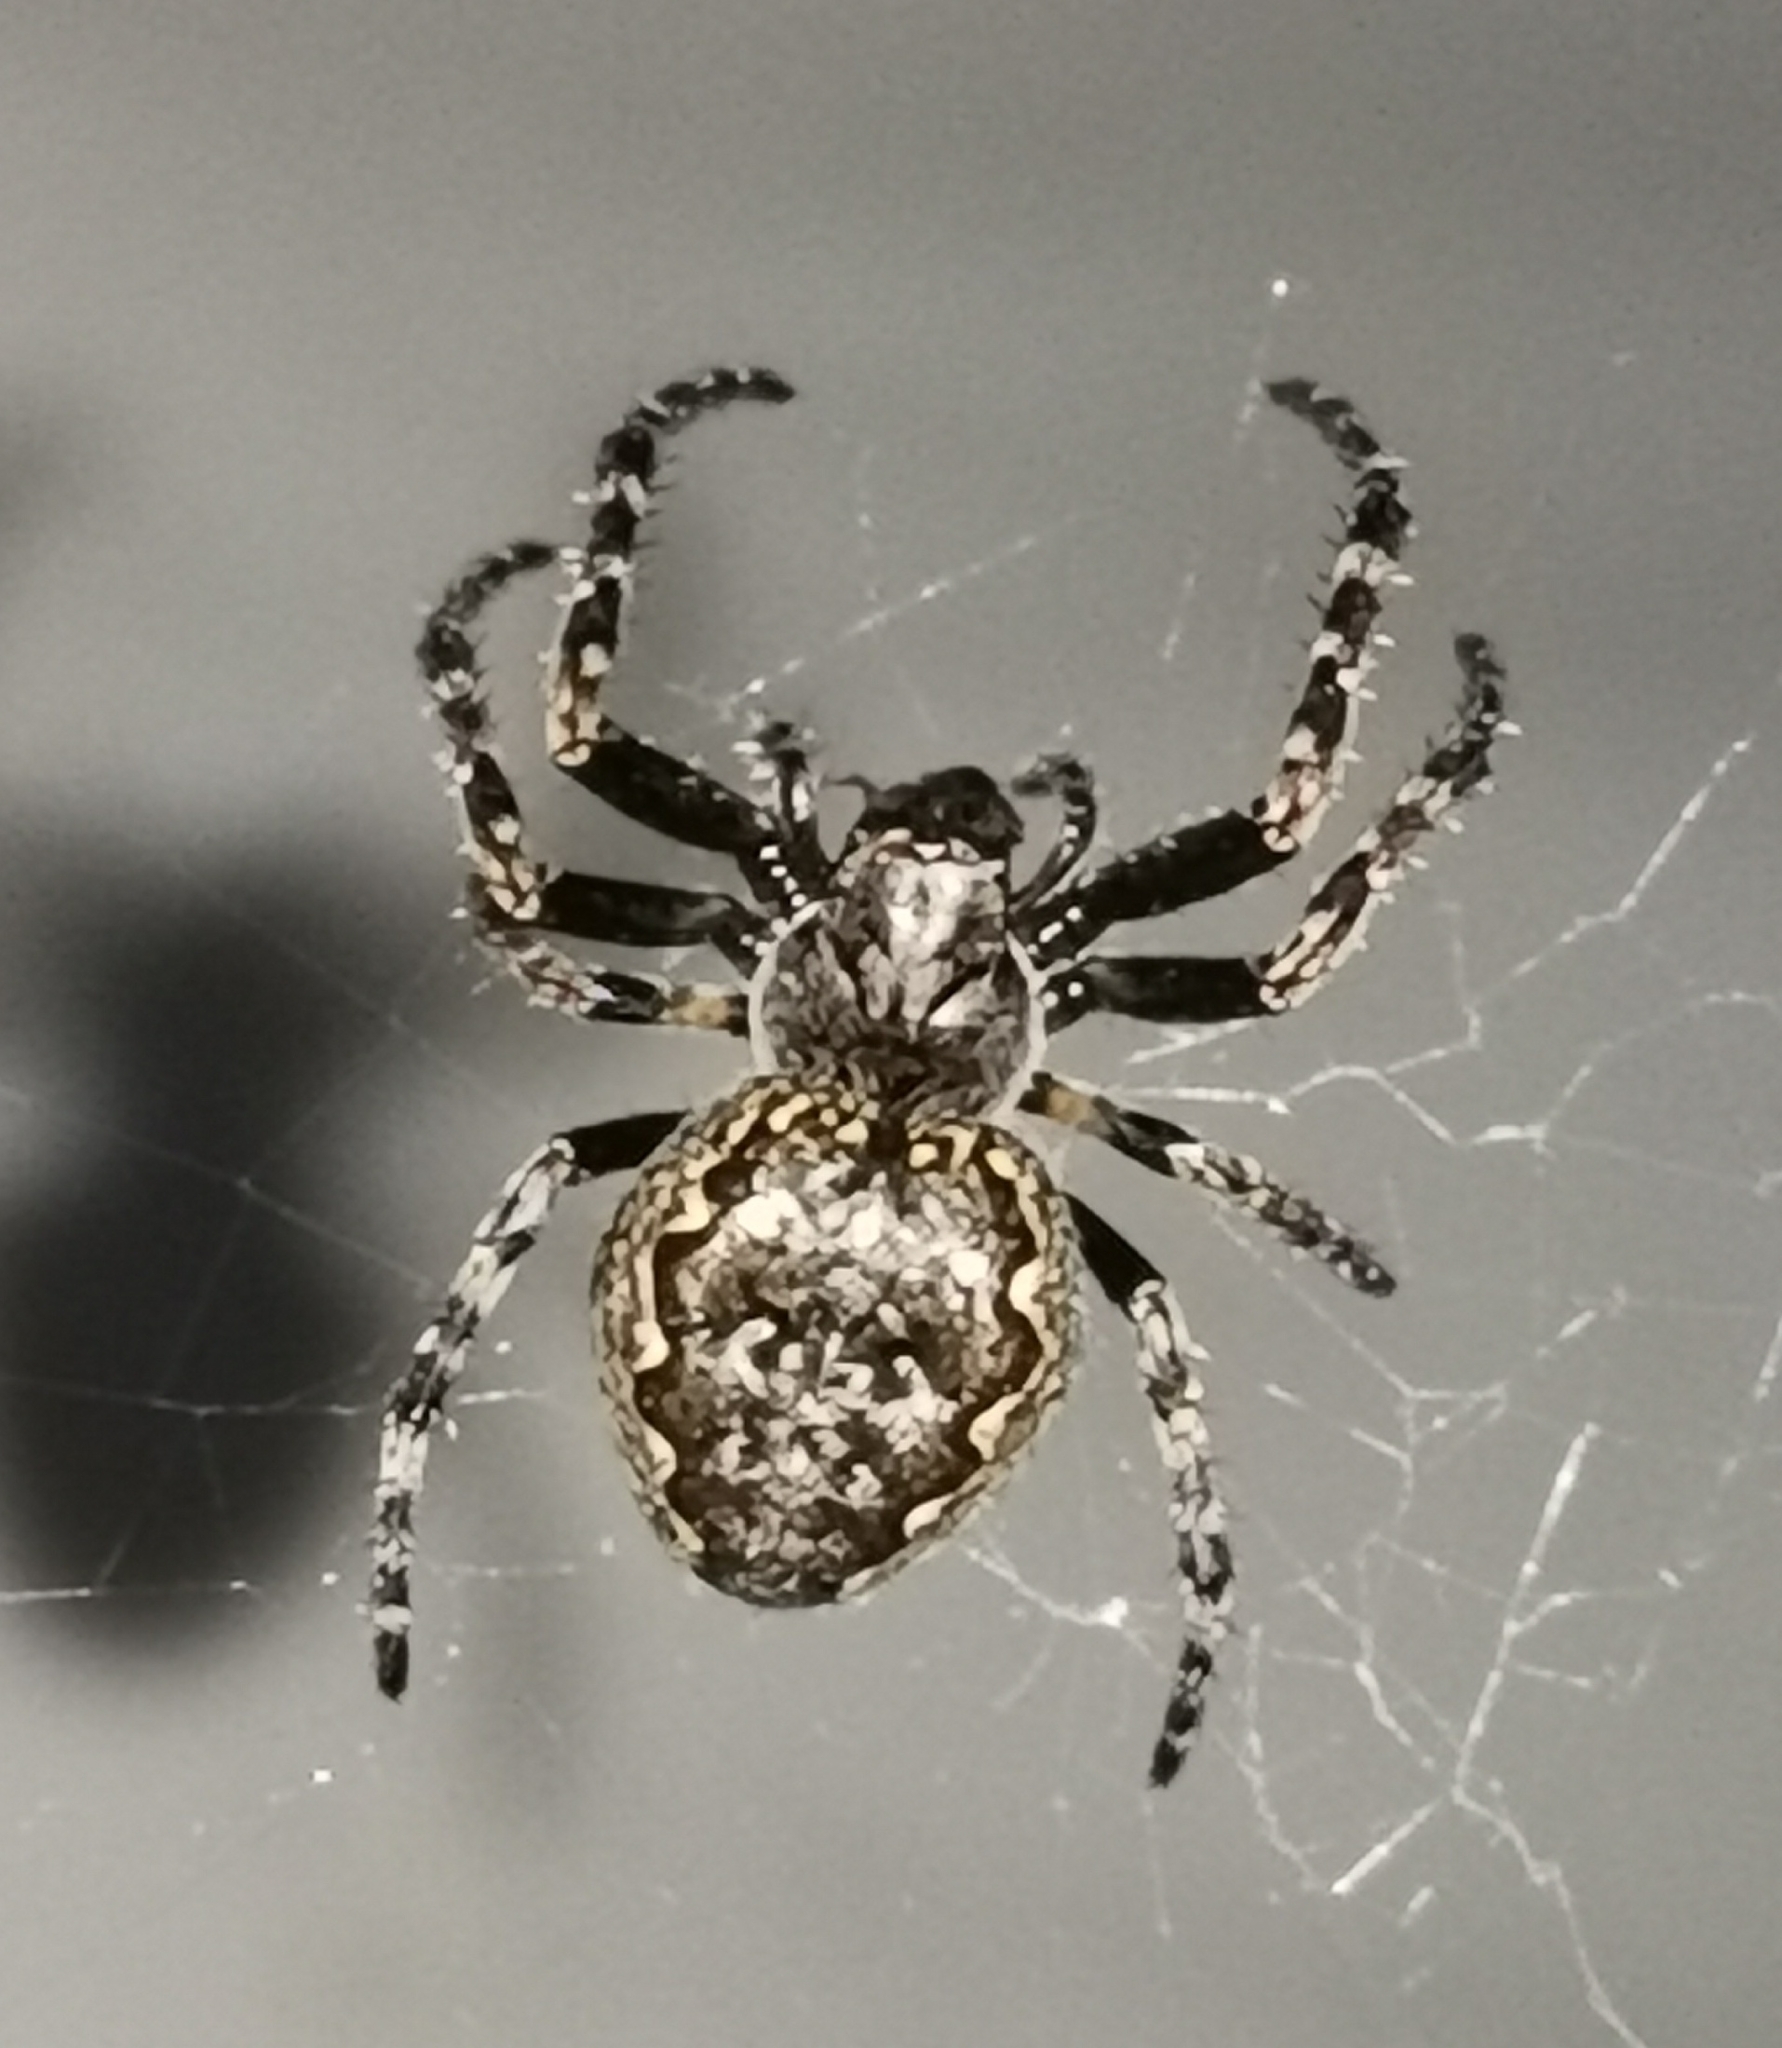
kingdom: Animalia
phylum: Arthropoda
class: Arachnida
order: Araneae
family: Araneidae
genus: Nuctenea
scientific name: Nuctenea umbratica
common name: Toad spider
